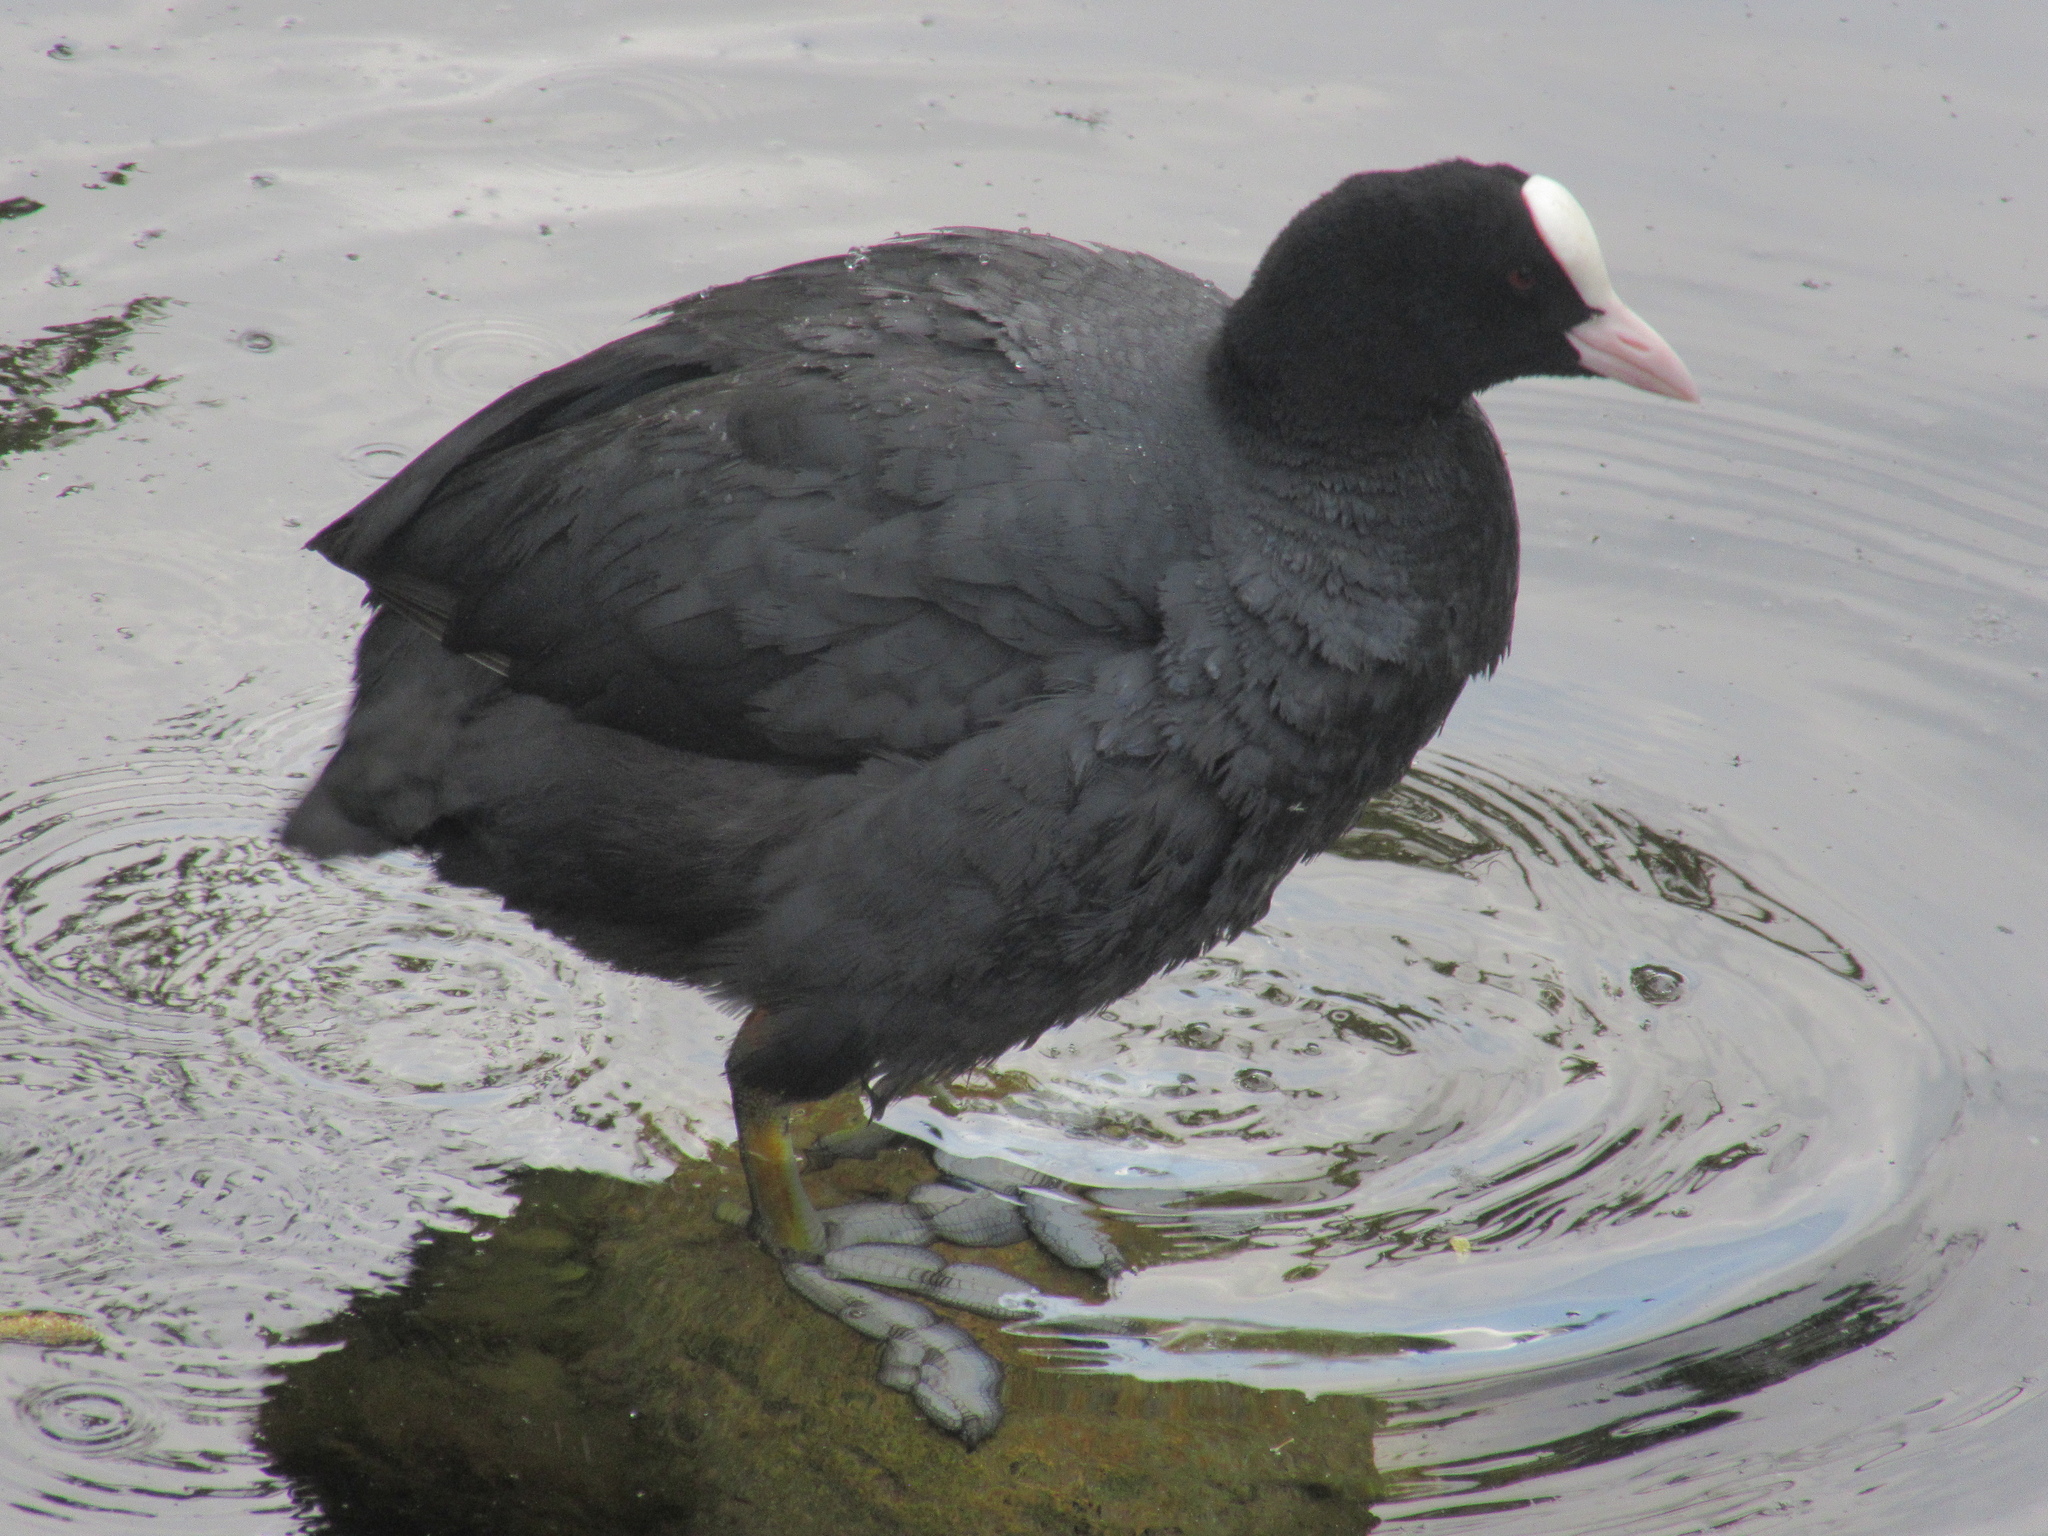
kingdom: Animalia
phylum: Chordata
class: Aves
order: Gruiformes
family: Rallidae
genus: Fulica
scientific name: Fulica atra
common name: Eurasian coot
